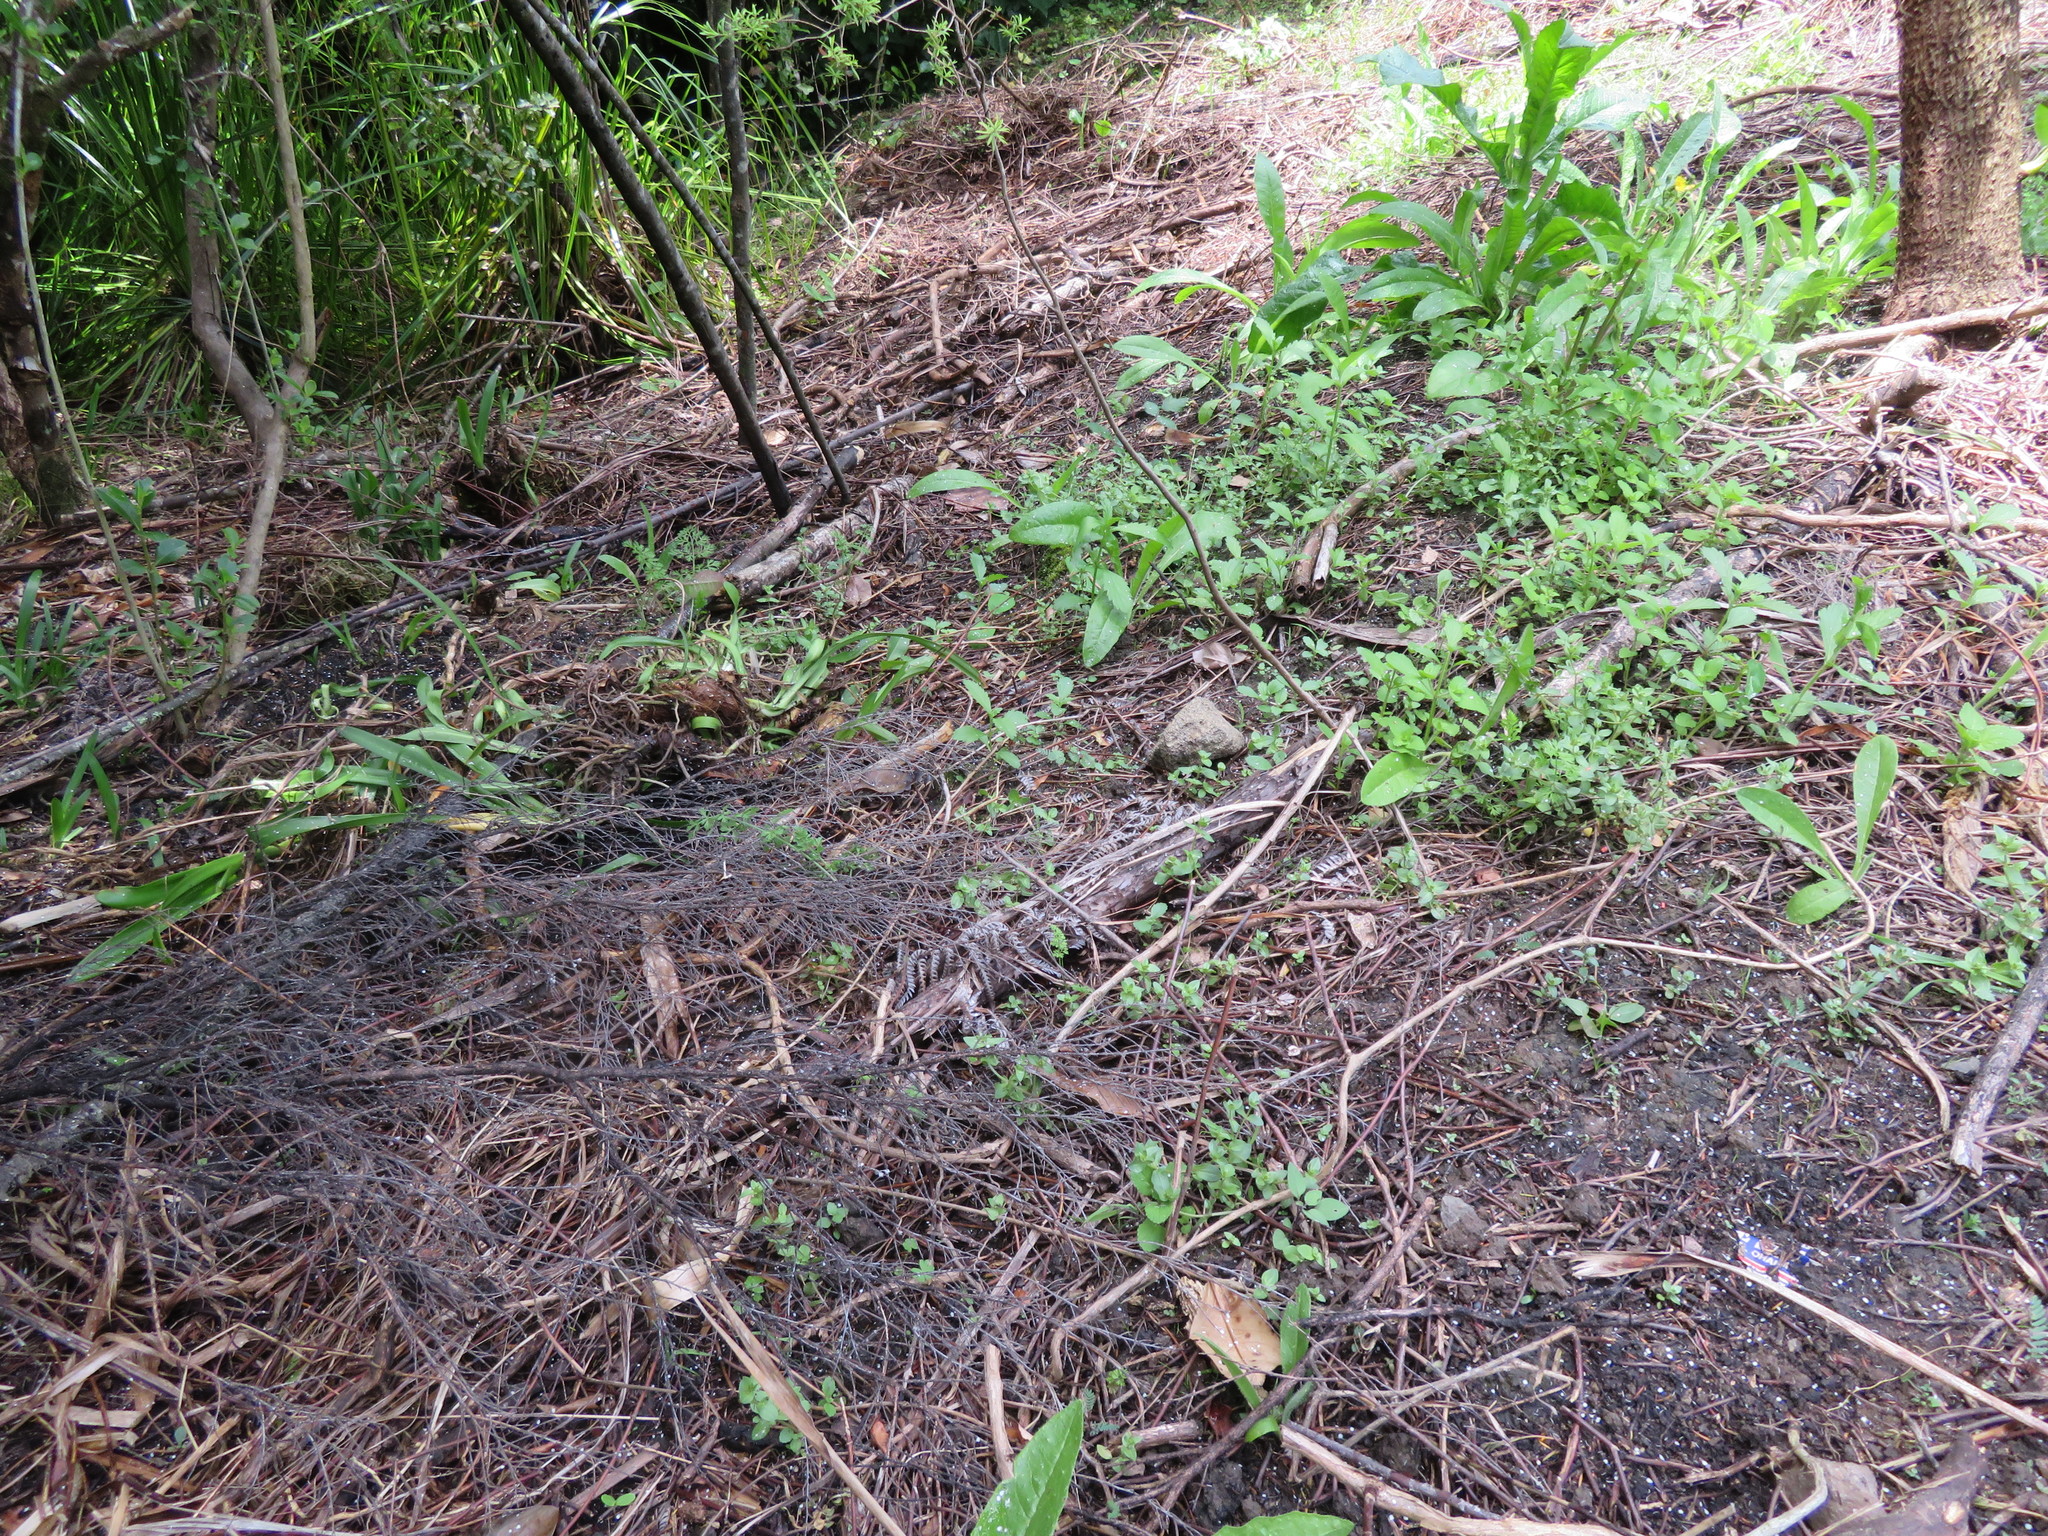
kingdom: Plantae
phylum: Tracheophyta
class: Magnoliopsida
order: Asterales
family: Asteraceae
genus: Helminthotheca
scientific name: Helminthotheca echioides
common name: Ox-tongue
